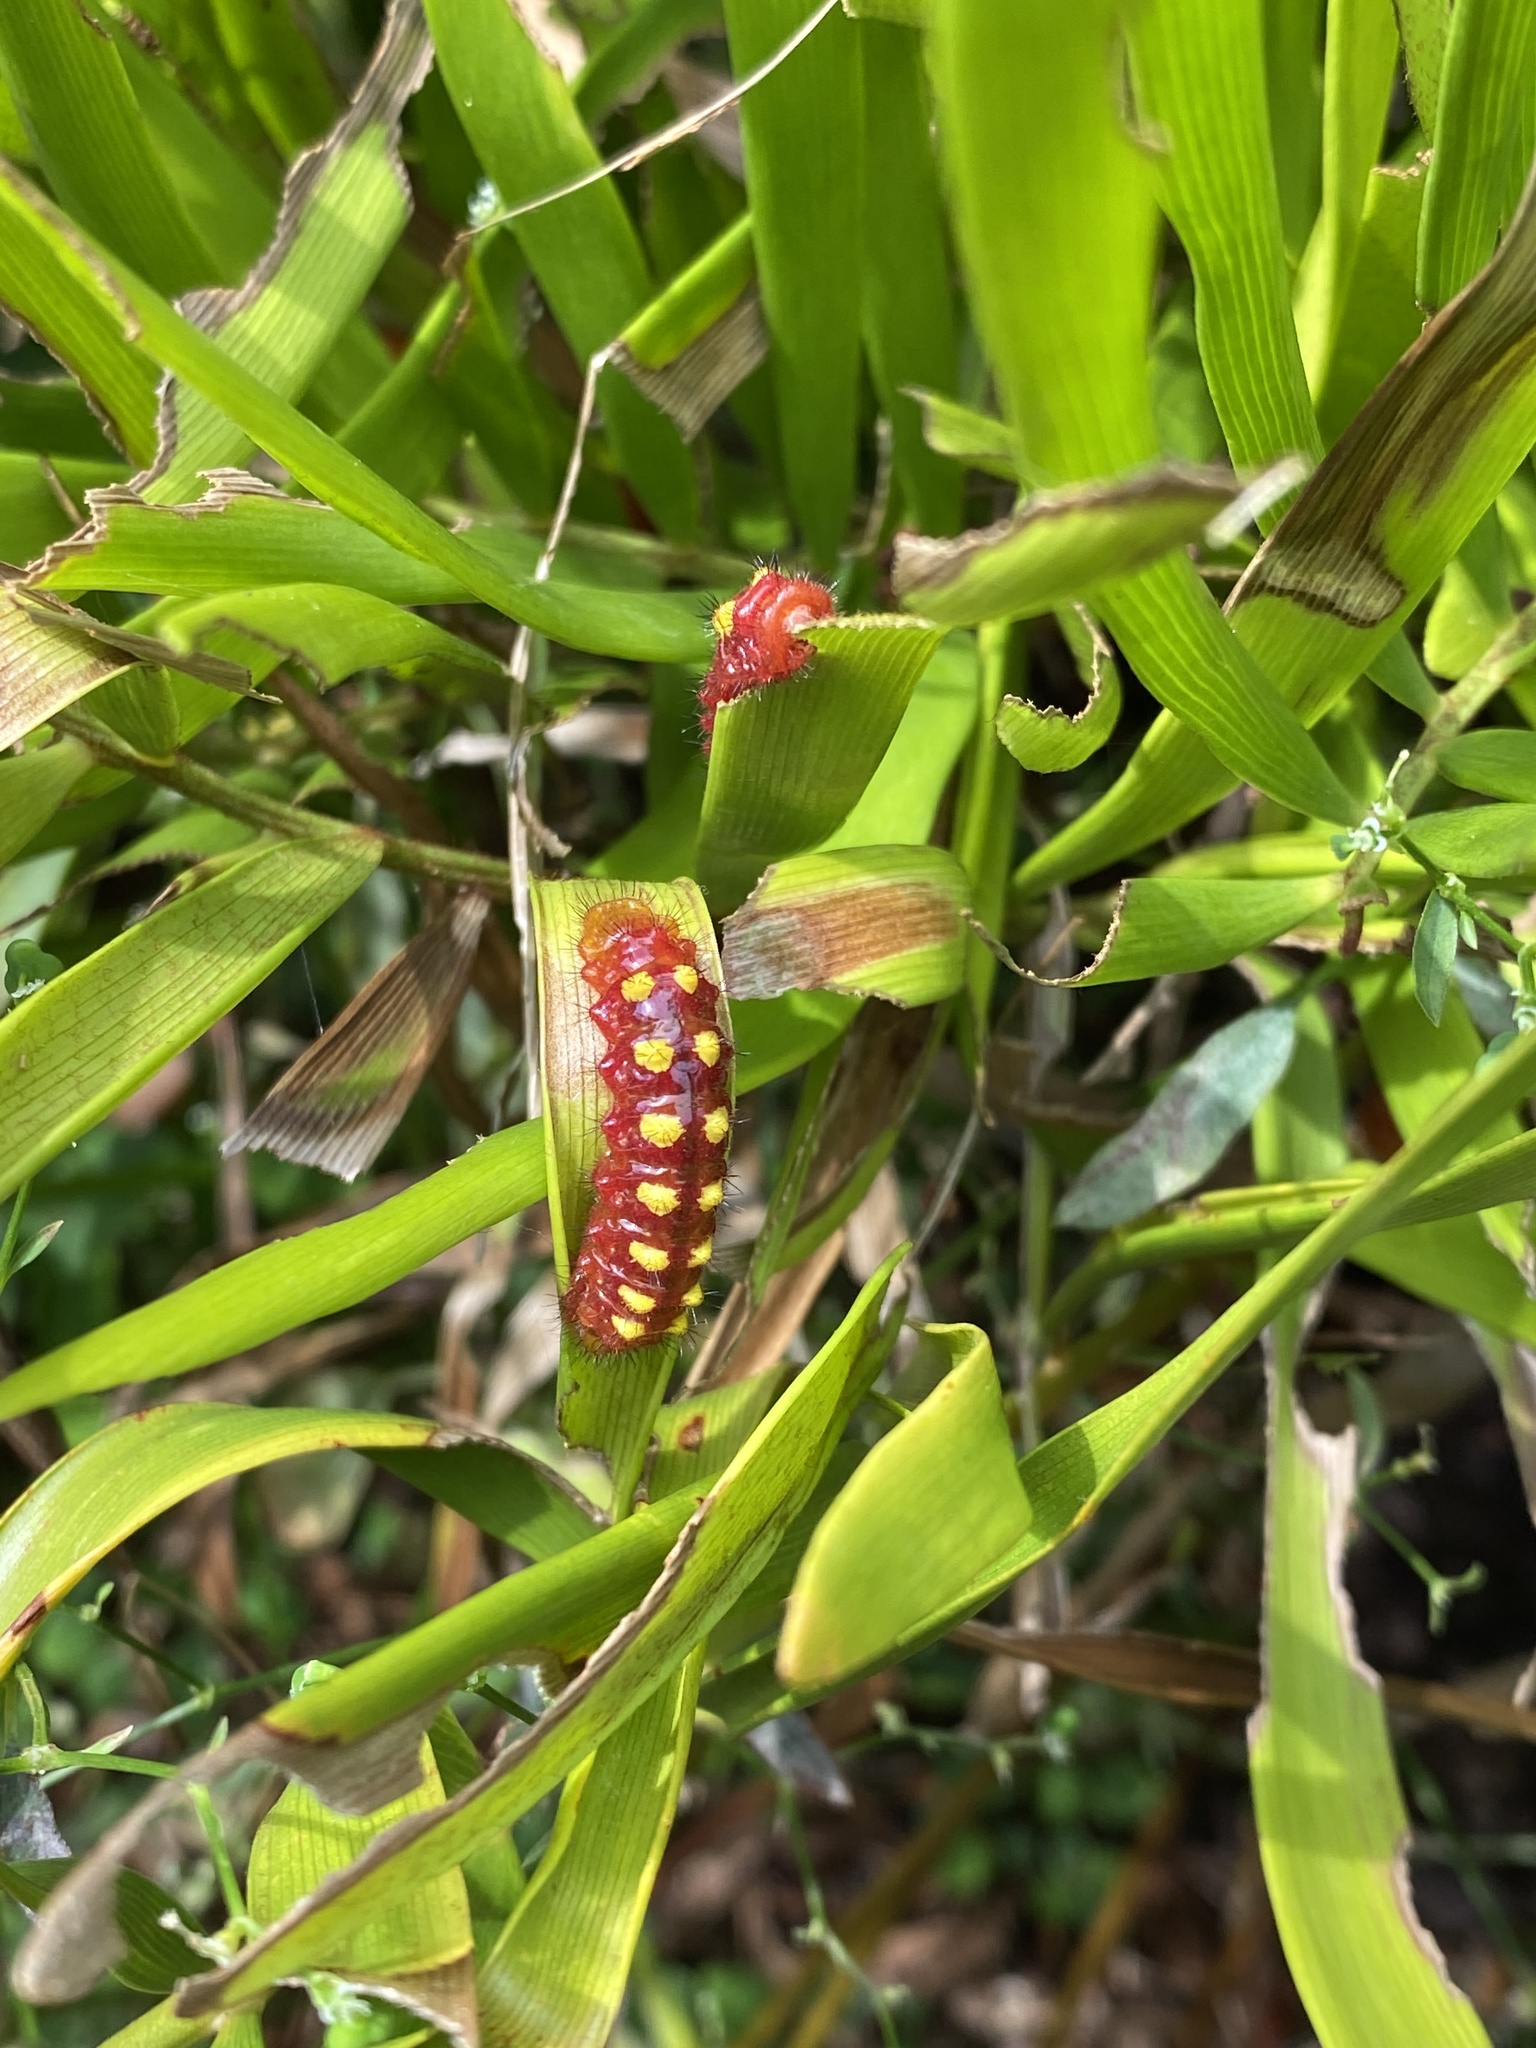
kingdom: Animalia
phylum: Arthropoda
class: Insecta
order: Lepidoptera
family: Lycaenidae
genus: Eumaeus
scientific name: Eumaeus atala
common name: Atala
